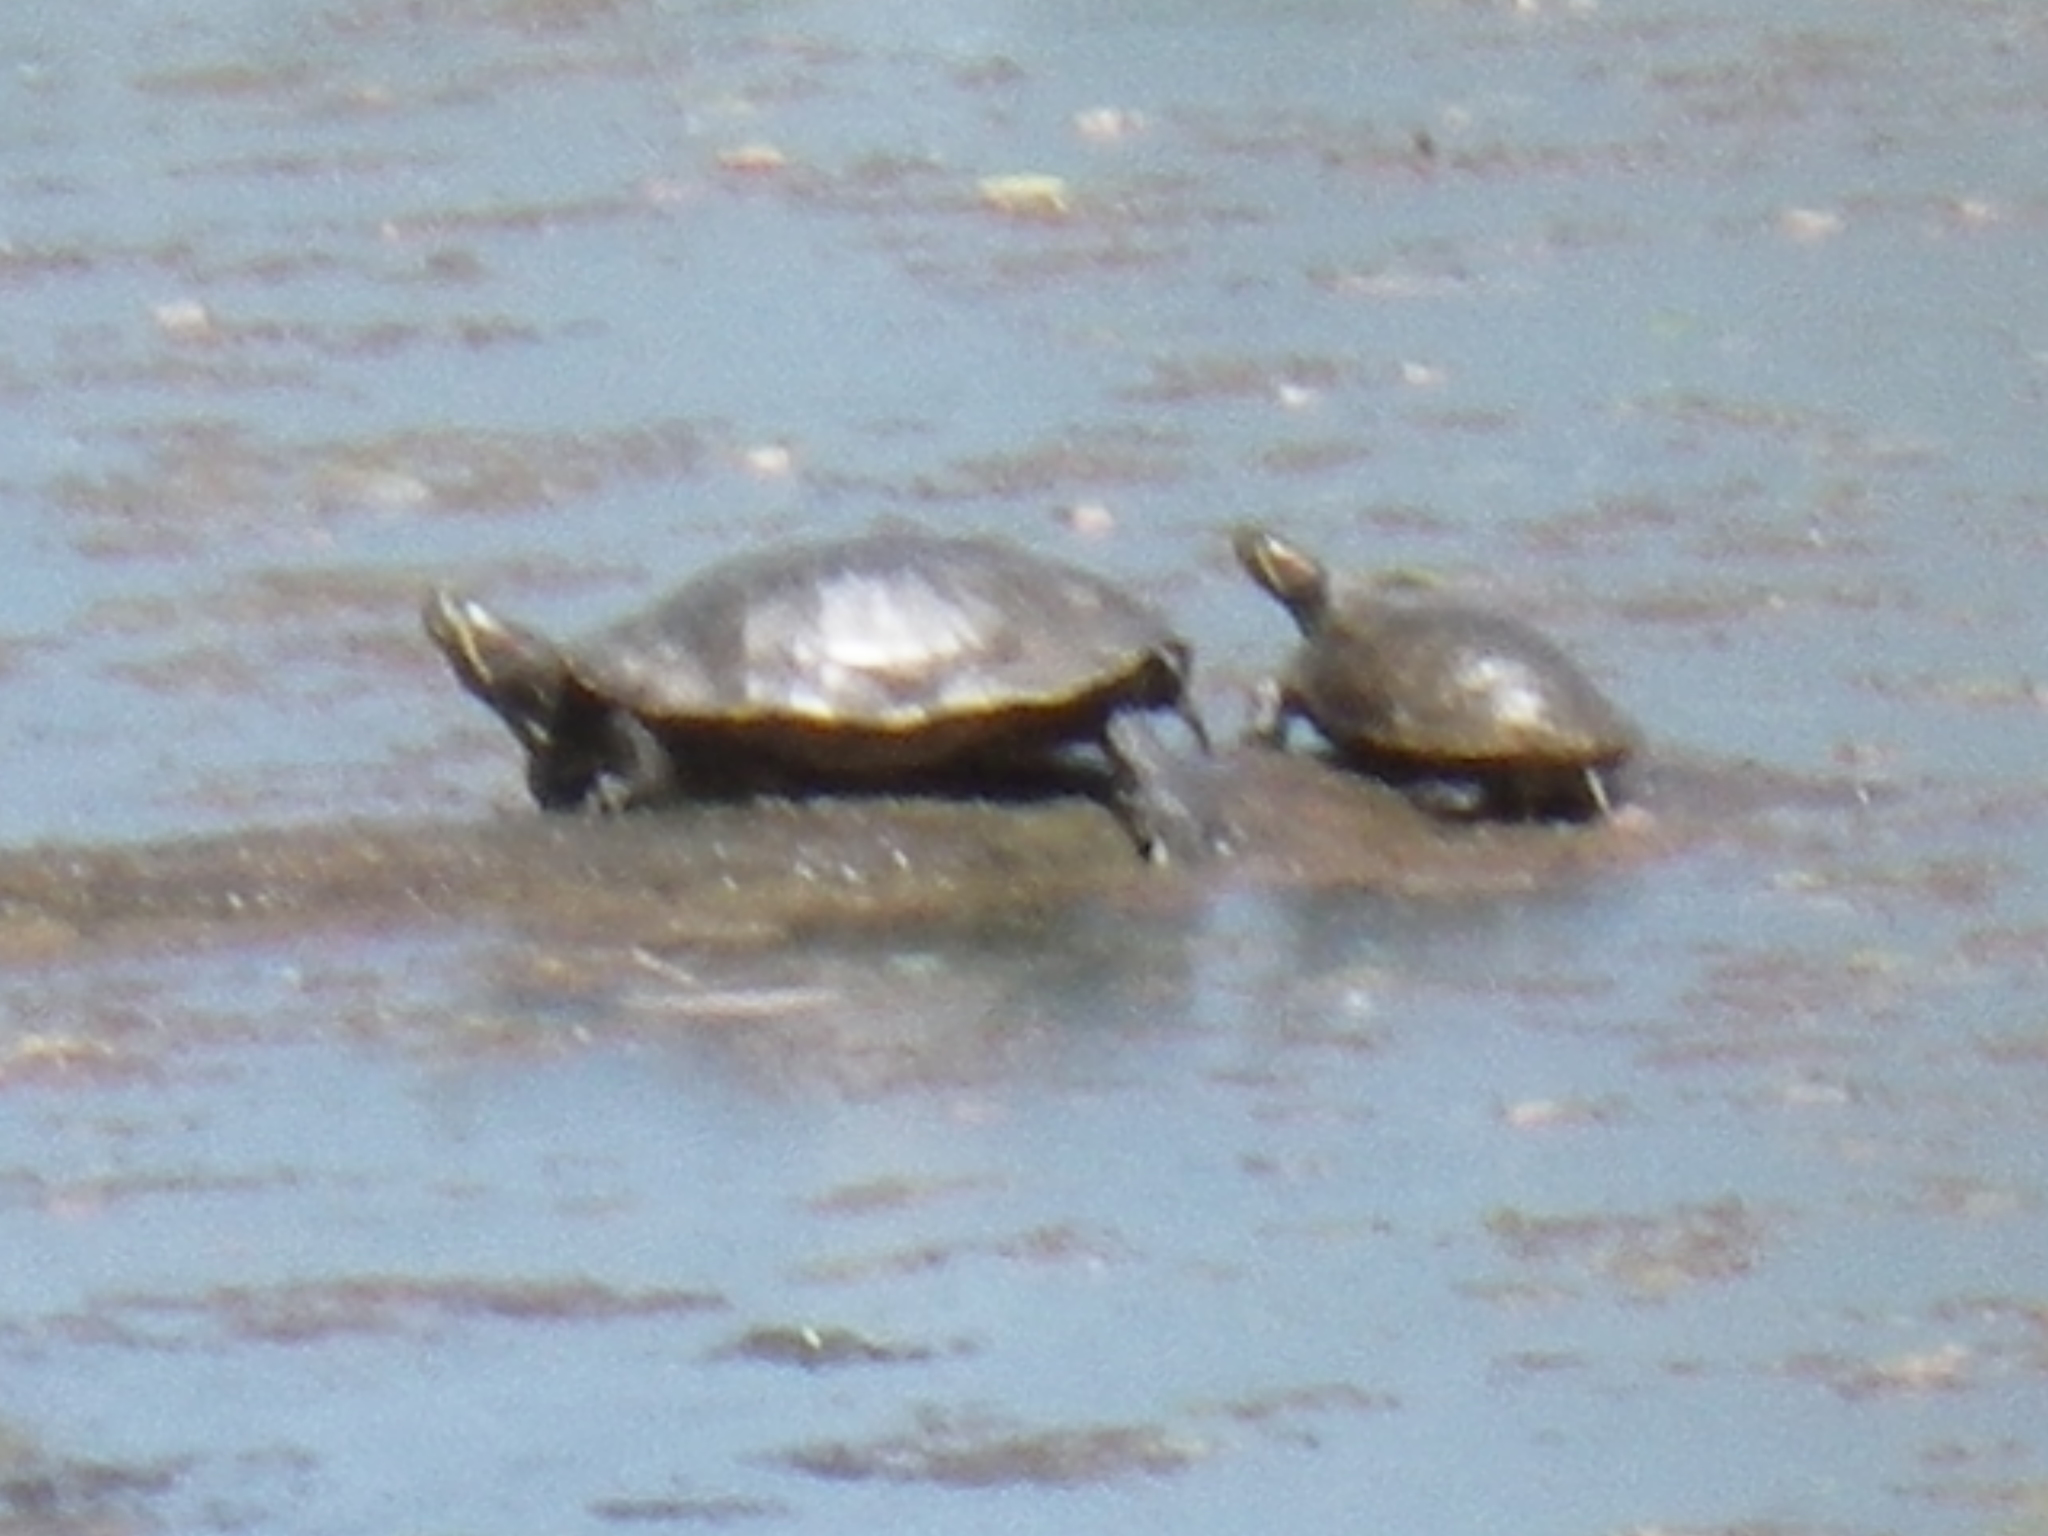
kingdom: Animalia
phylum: Chordata
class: Testudines
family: Emydidae
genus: Trachemys
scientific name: Trachemys scripta
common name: Slider
